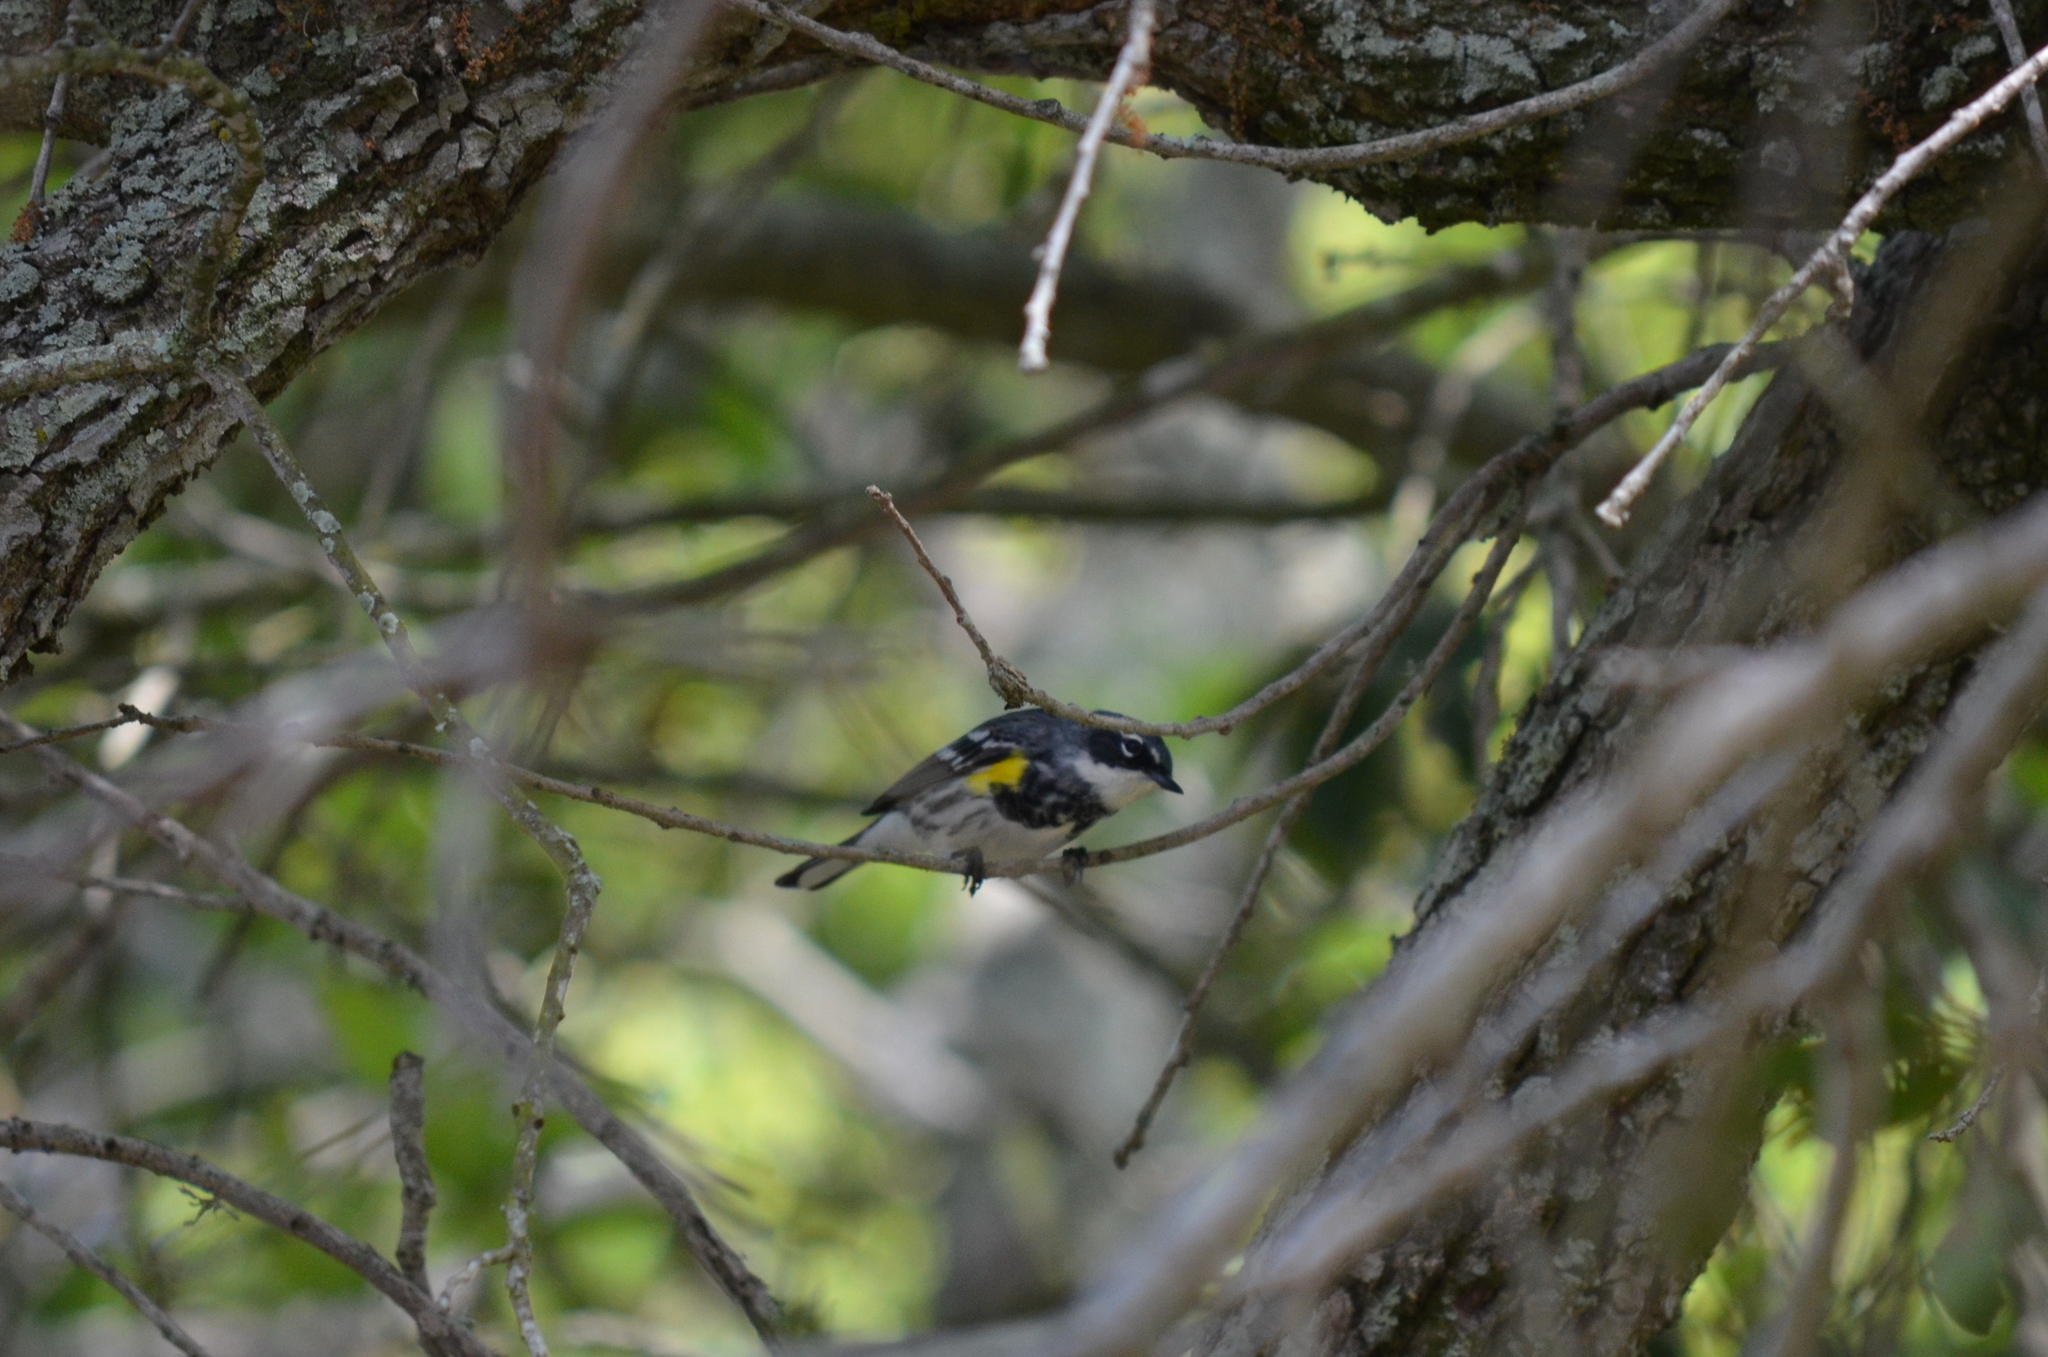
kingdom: Animalia
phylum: Chordata
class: Aves
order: Passeriformes
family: Parulidae
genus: Setophaga
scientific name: Setophaga coronata
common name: Myrtle warbler
